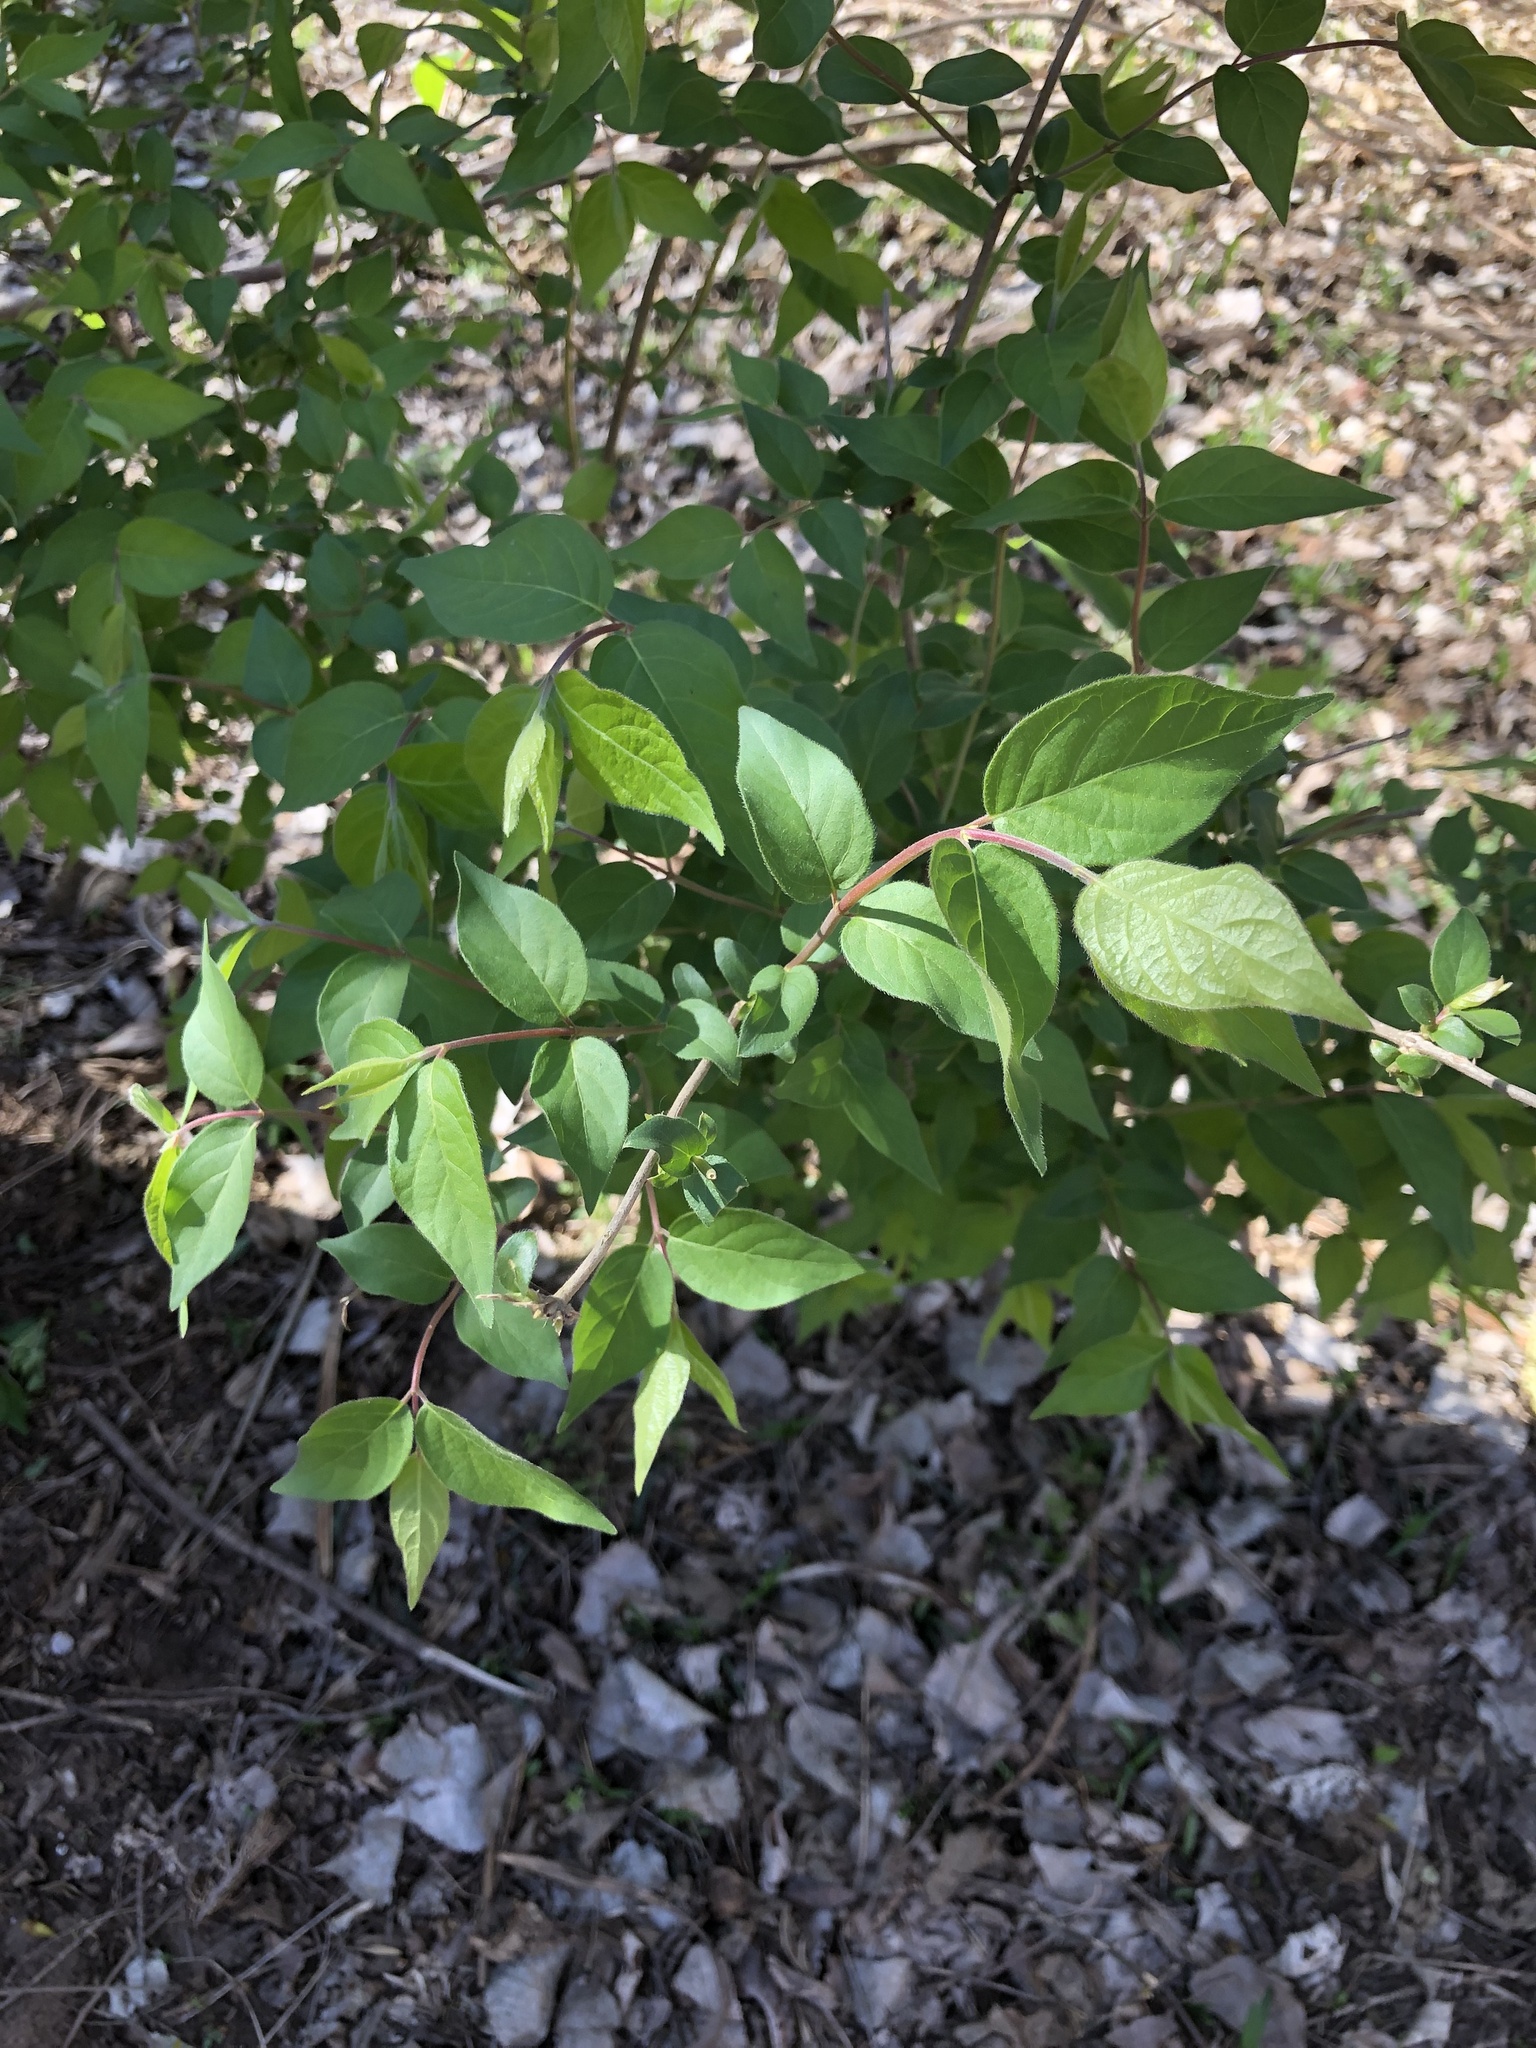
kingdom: Plantae
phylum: Tracheophyta
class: Magnoliopsida
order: Dipsacales
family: Caprifoliaceae
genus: Lonicera
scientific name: Lonicera maackii
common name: Amur honeysuckle
